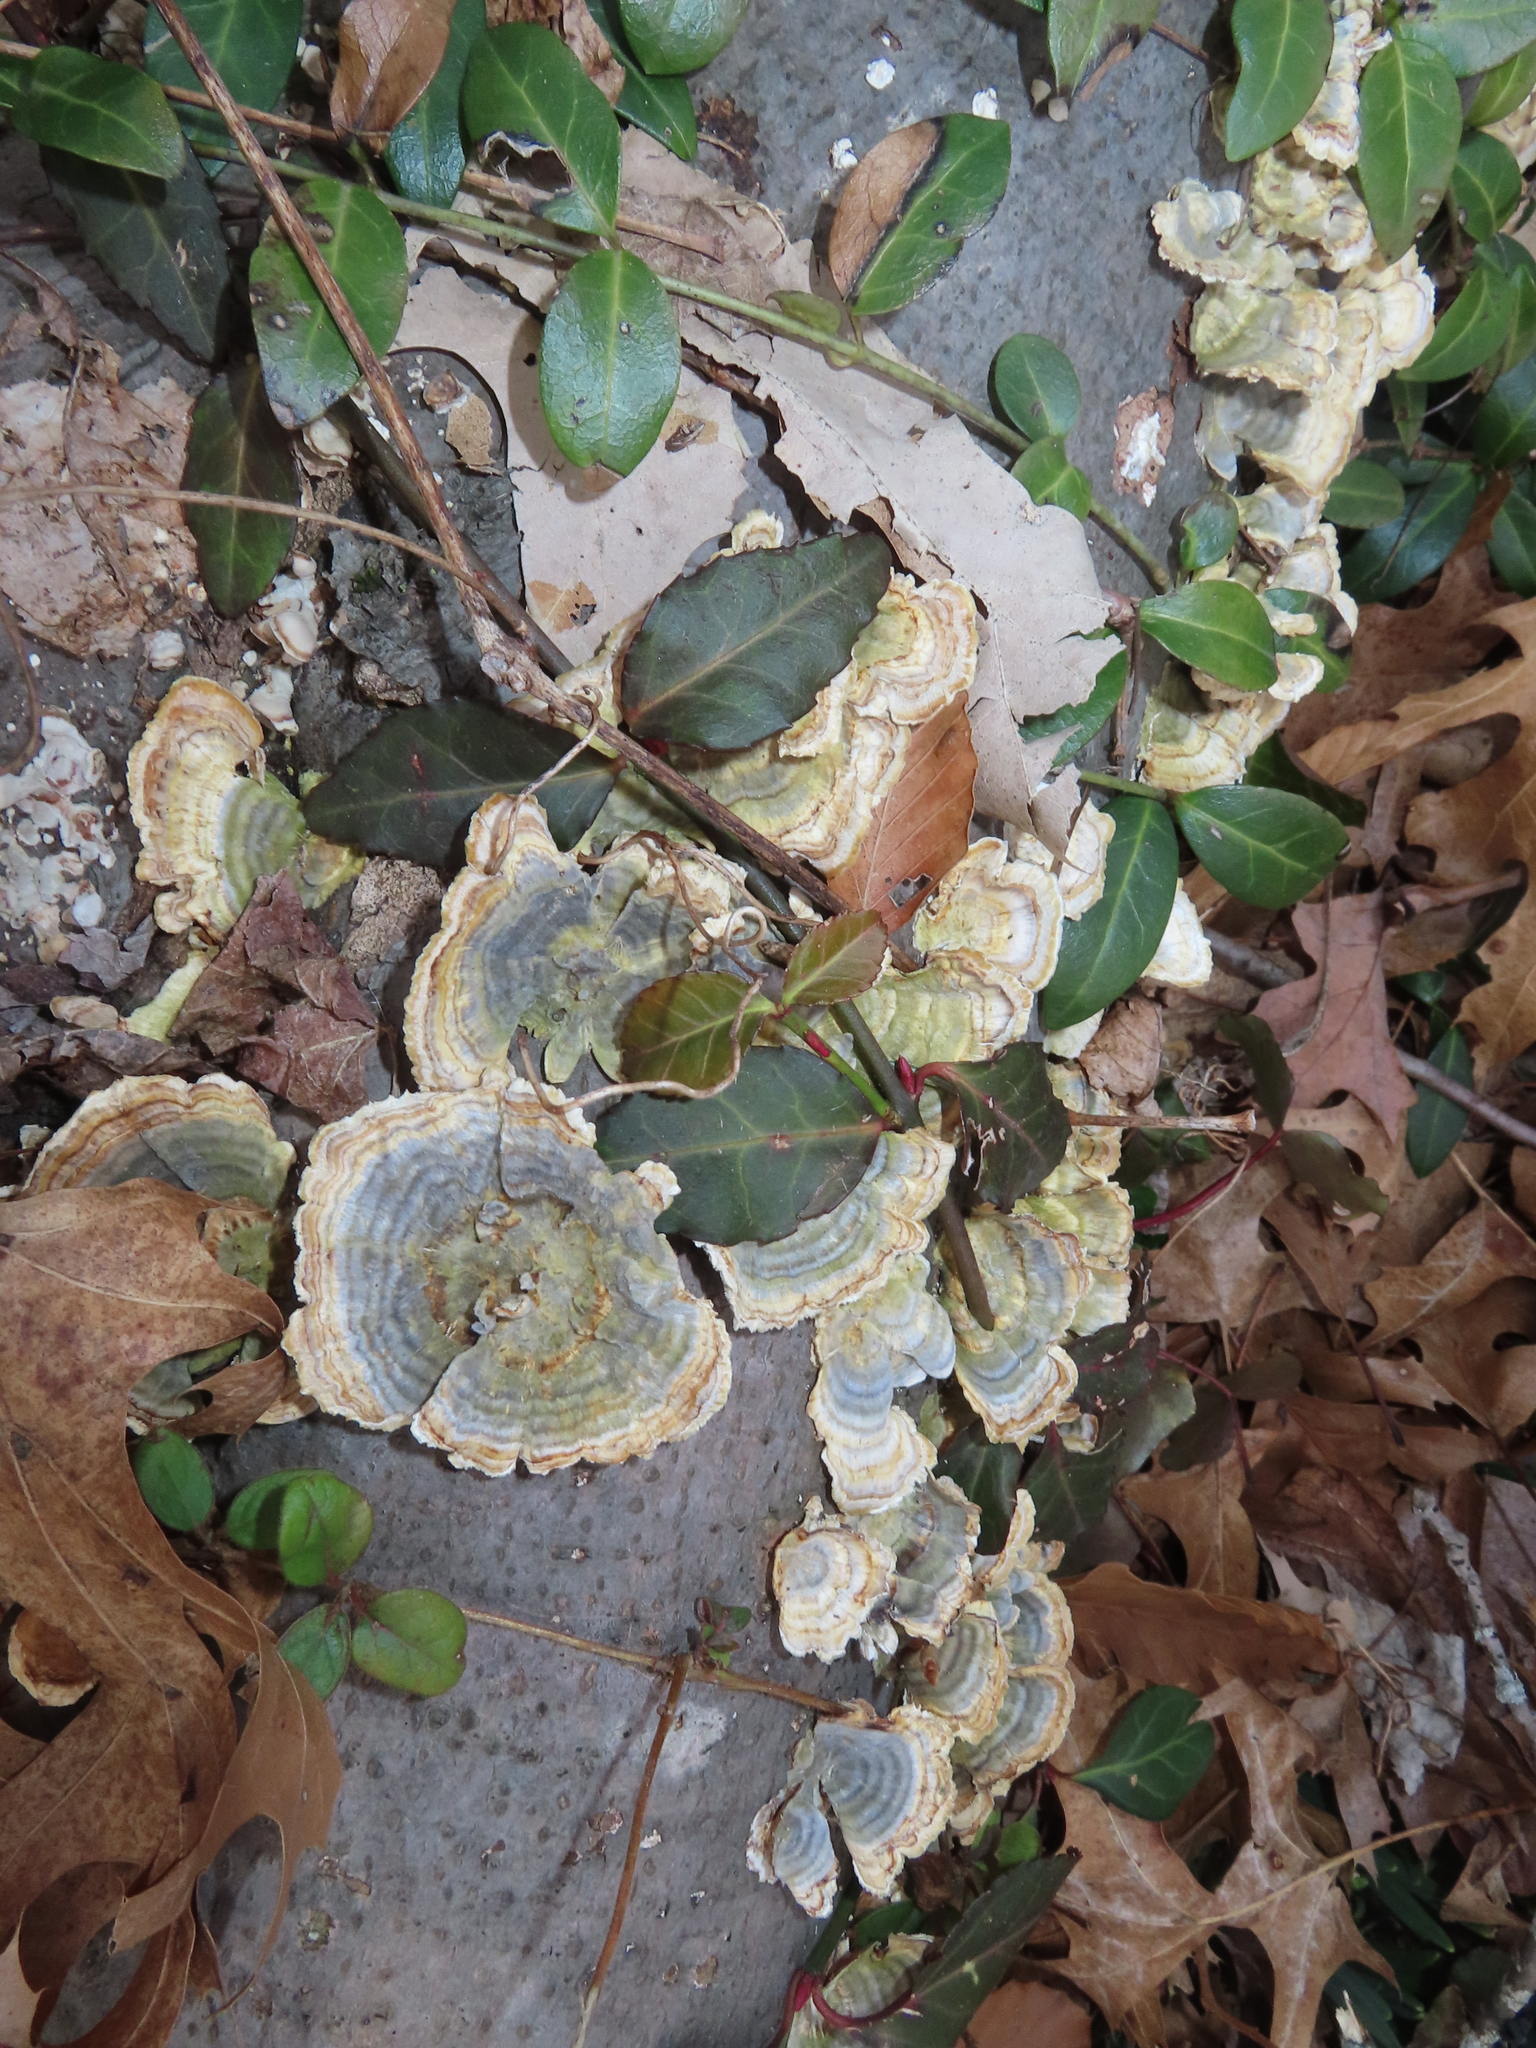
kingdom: Plantae
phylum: Tracheophyta
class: Magnoliopsida
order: Celastrales
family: Celastraceae
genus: Euonymus
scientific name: Euonymus fortunei
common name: Climbing euonymus
